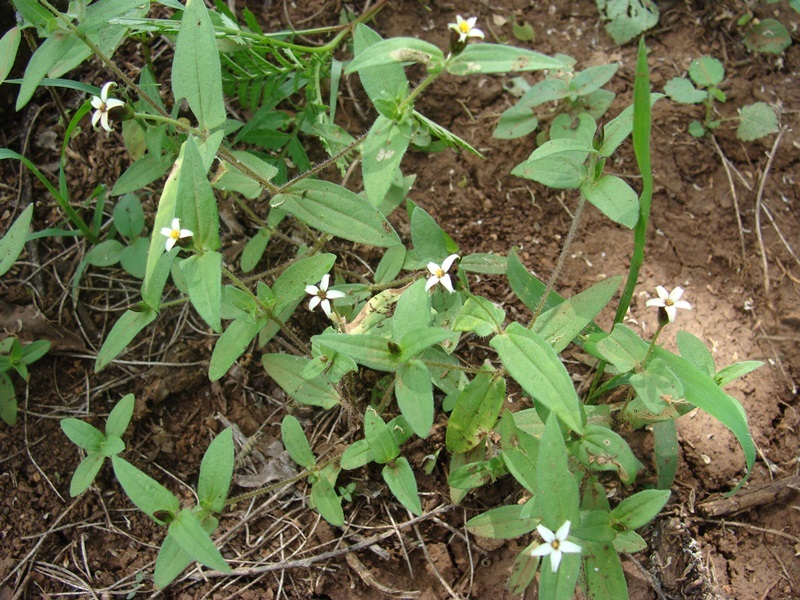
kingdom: Plantae
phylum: Tracheophyta
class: Magnoliopsida
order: Asterales
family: Asteraceae
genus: Zinnia
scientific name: Zinnia zinnioides
